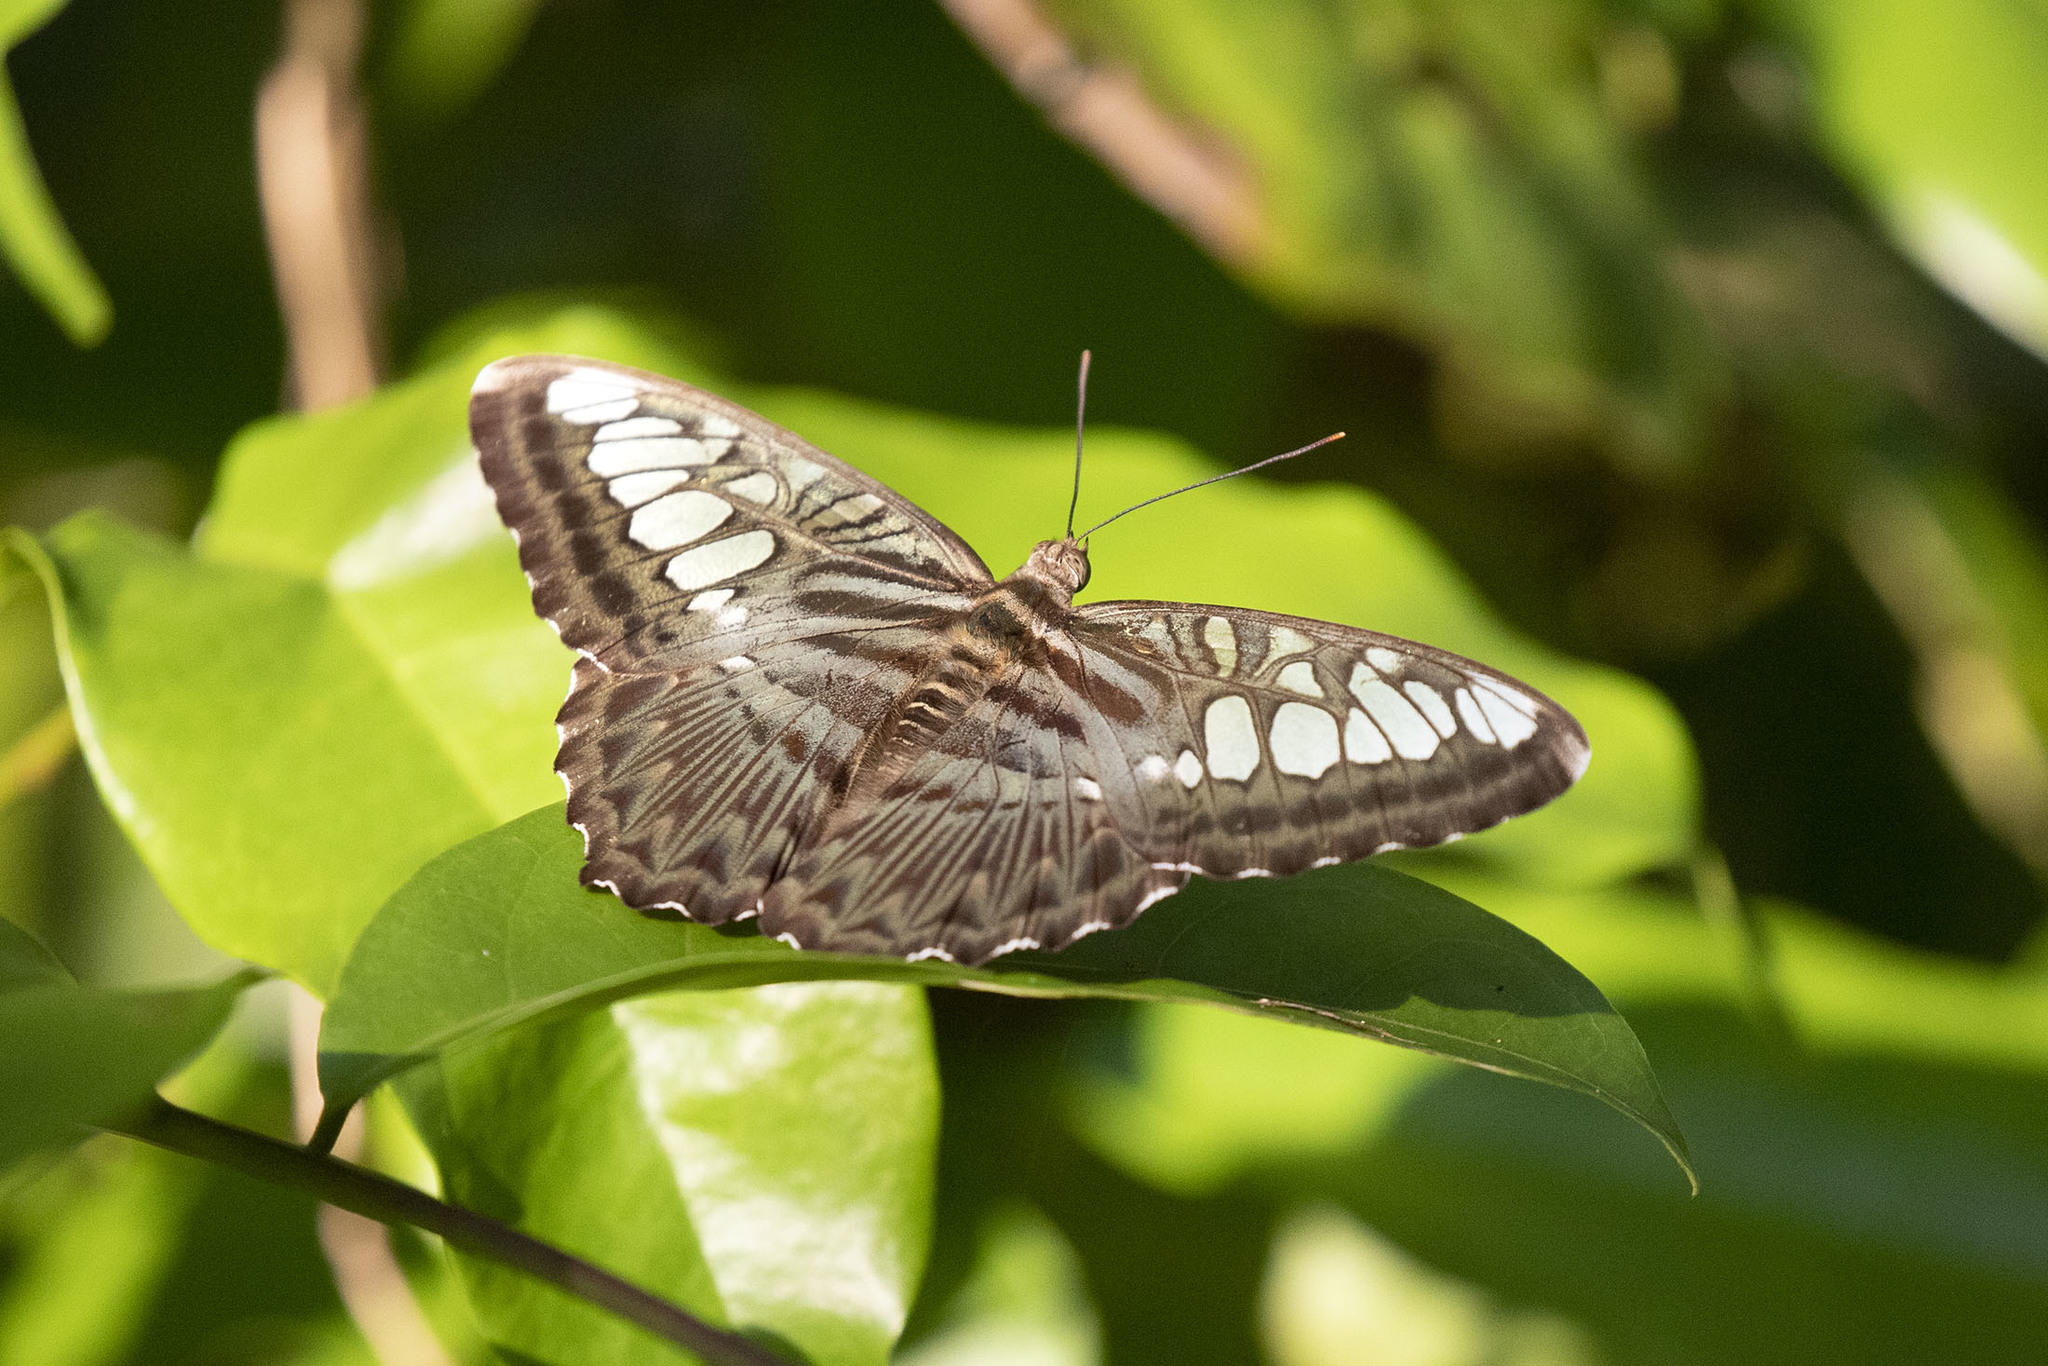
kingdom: Animalia
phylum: Arthropoda
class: Insecta
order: Lepidoptera
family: Nymphalidae
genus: Kallima
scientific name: Kallima sylvia
